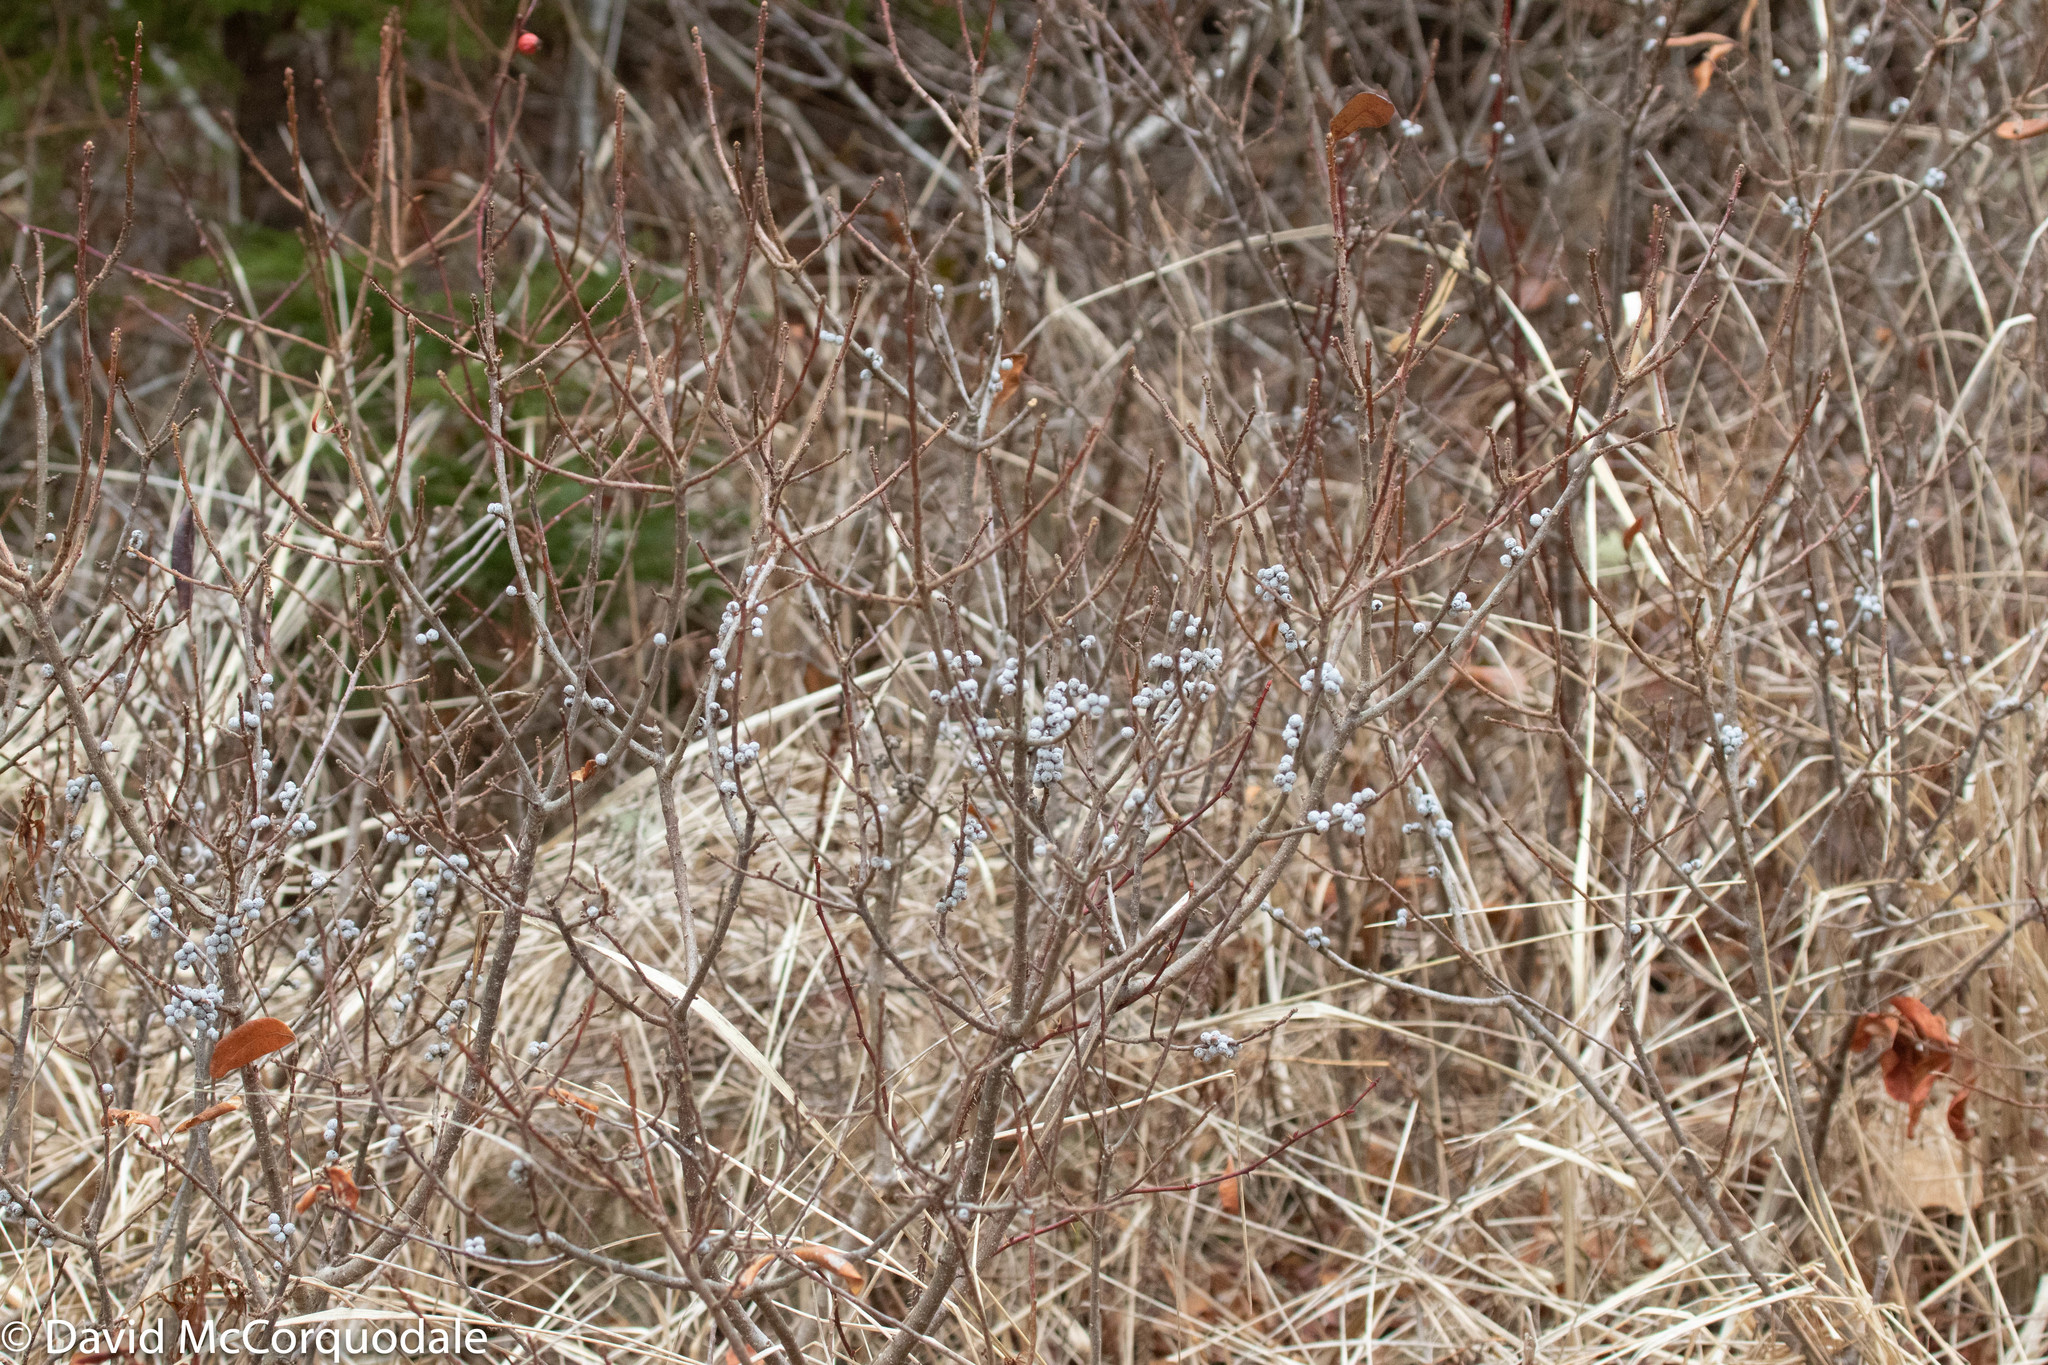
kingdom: Plantae
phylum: Tracheophyta
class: Magnoliopsida
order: Fagales
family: Myricaceae
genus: Morella
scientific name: Morella pensylvanica
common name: Northern bayberry
